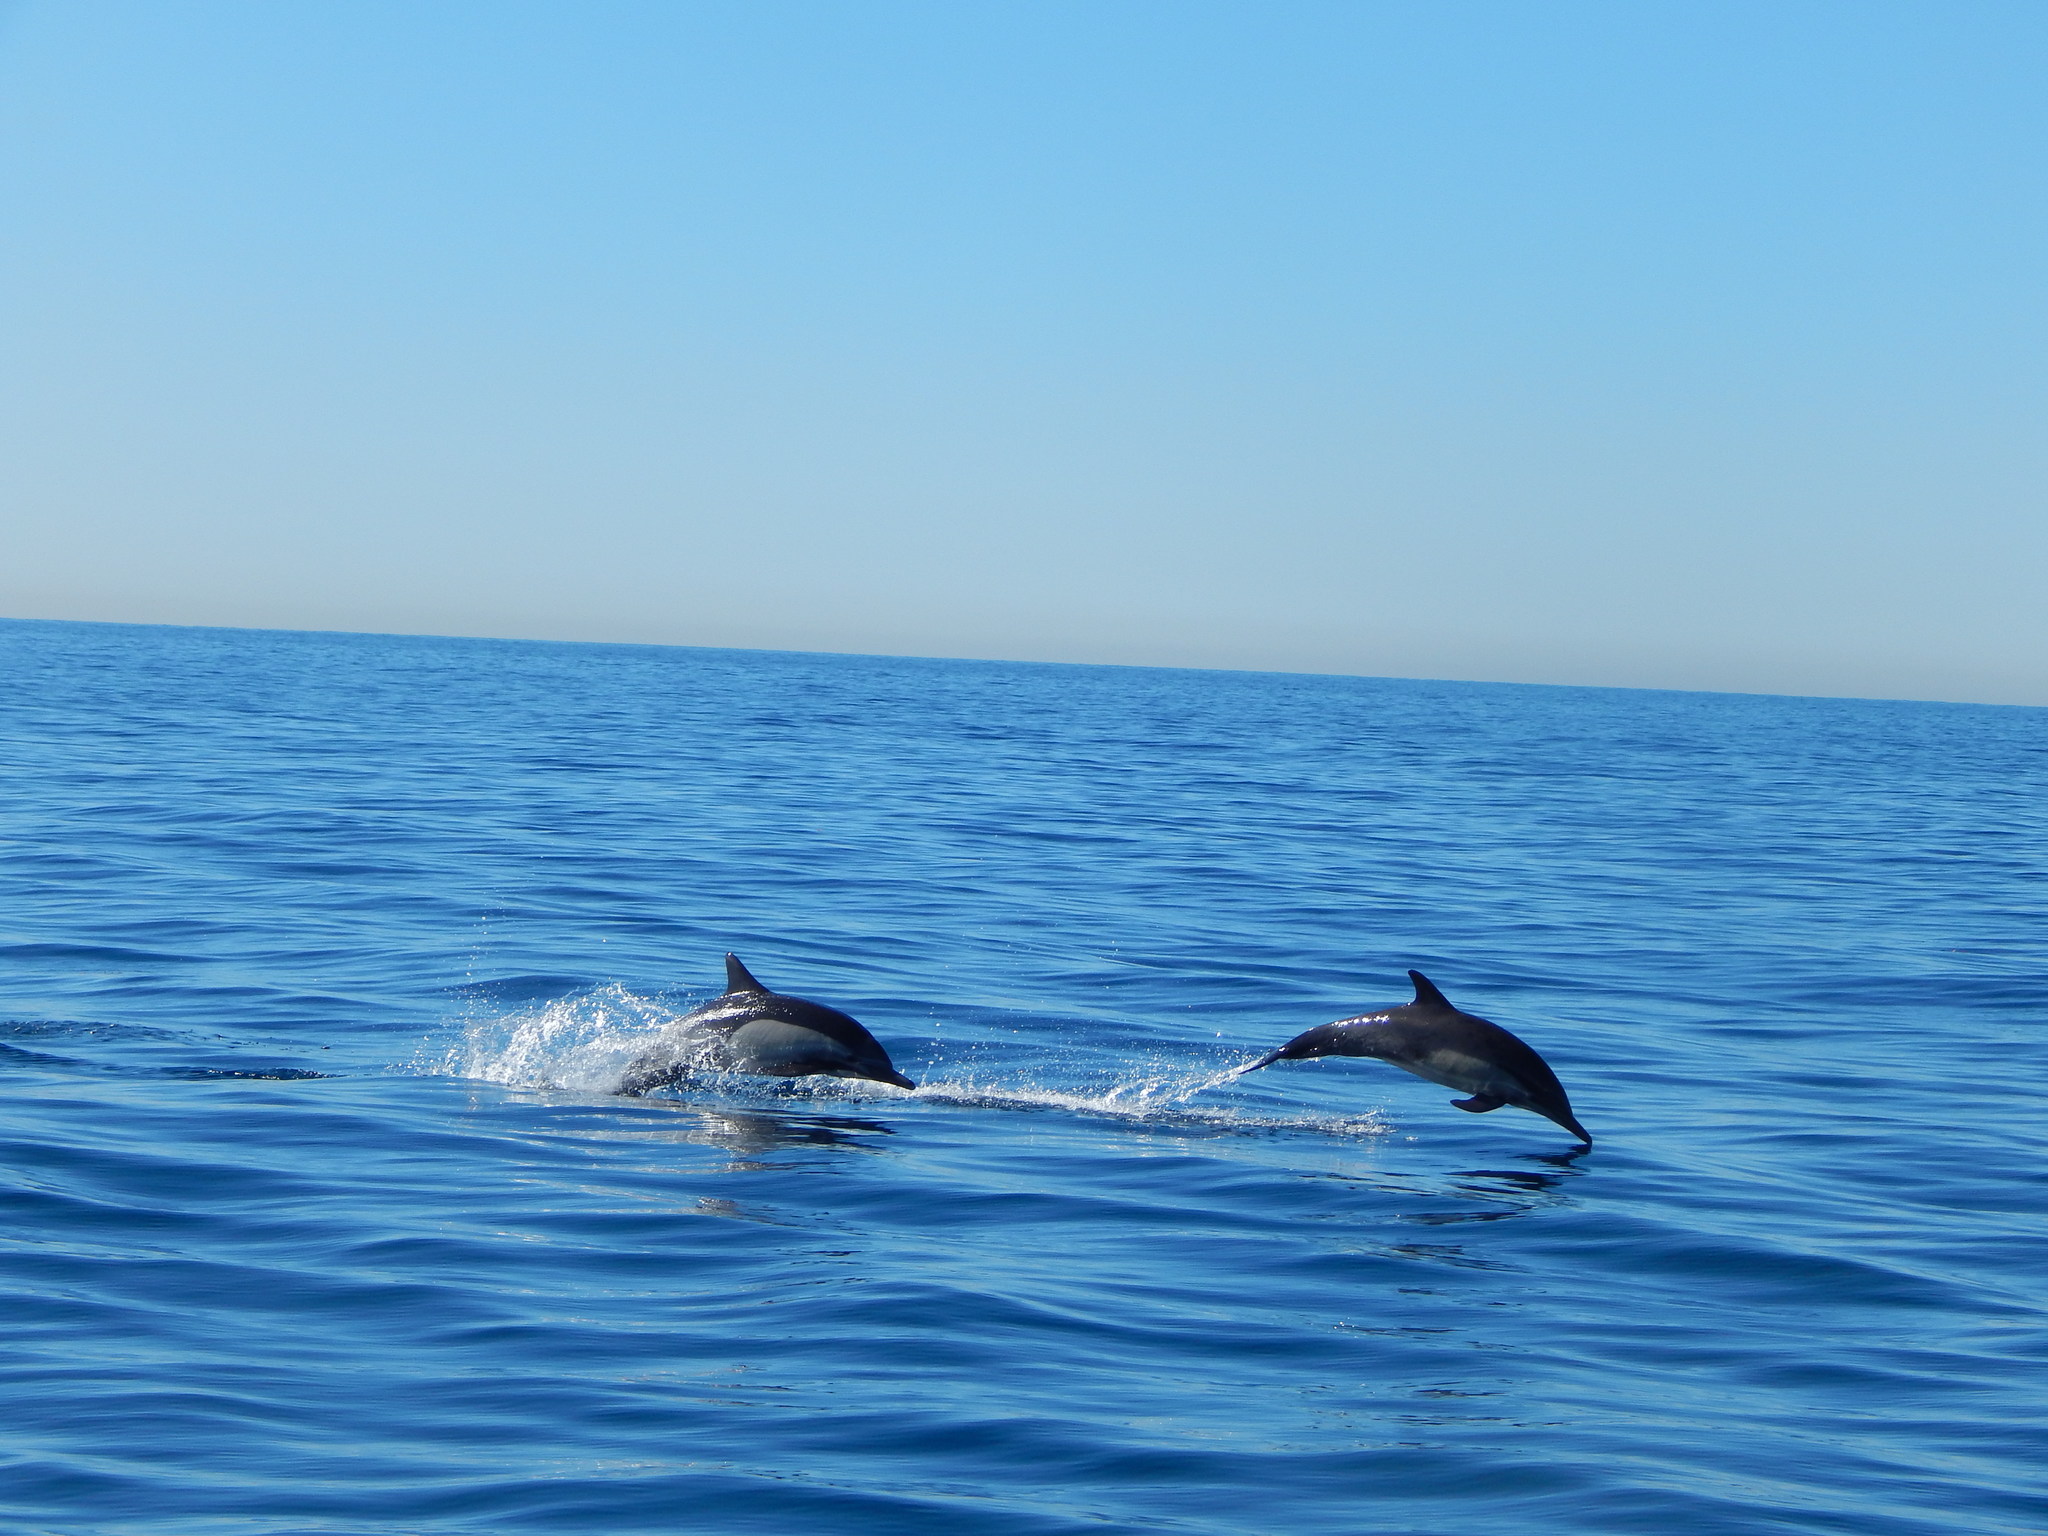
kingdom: Animalia
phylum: Chordata
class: Mammalia
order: Cetacea
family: Delphinidae
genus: Delphinus
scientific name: Delphinus delphis
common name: Common dolphin
